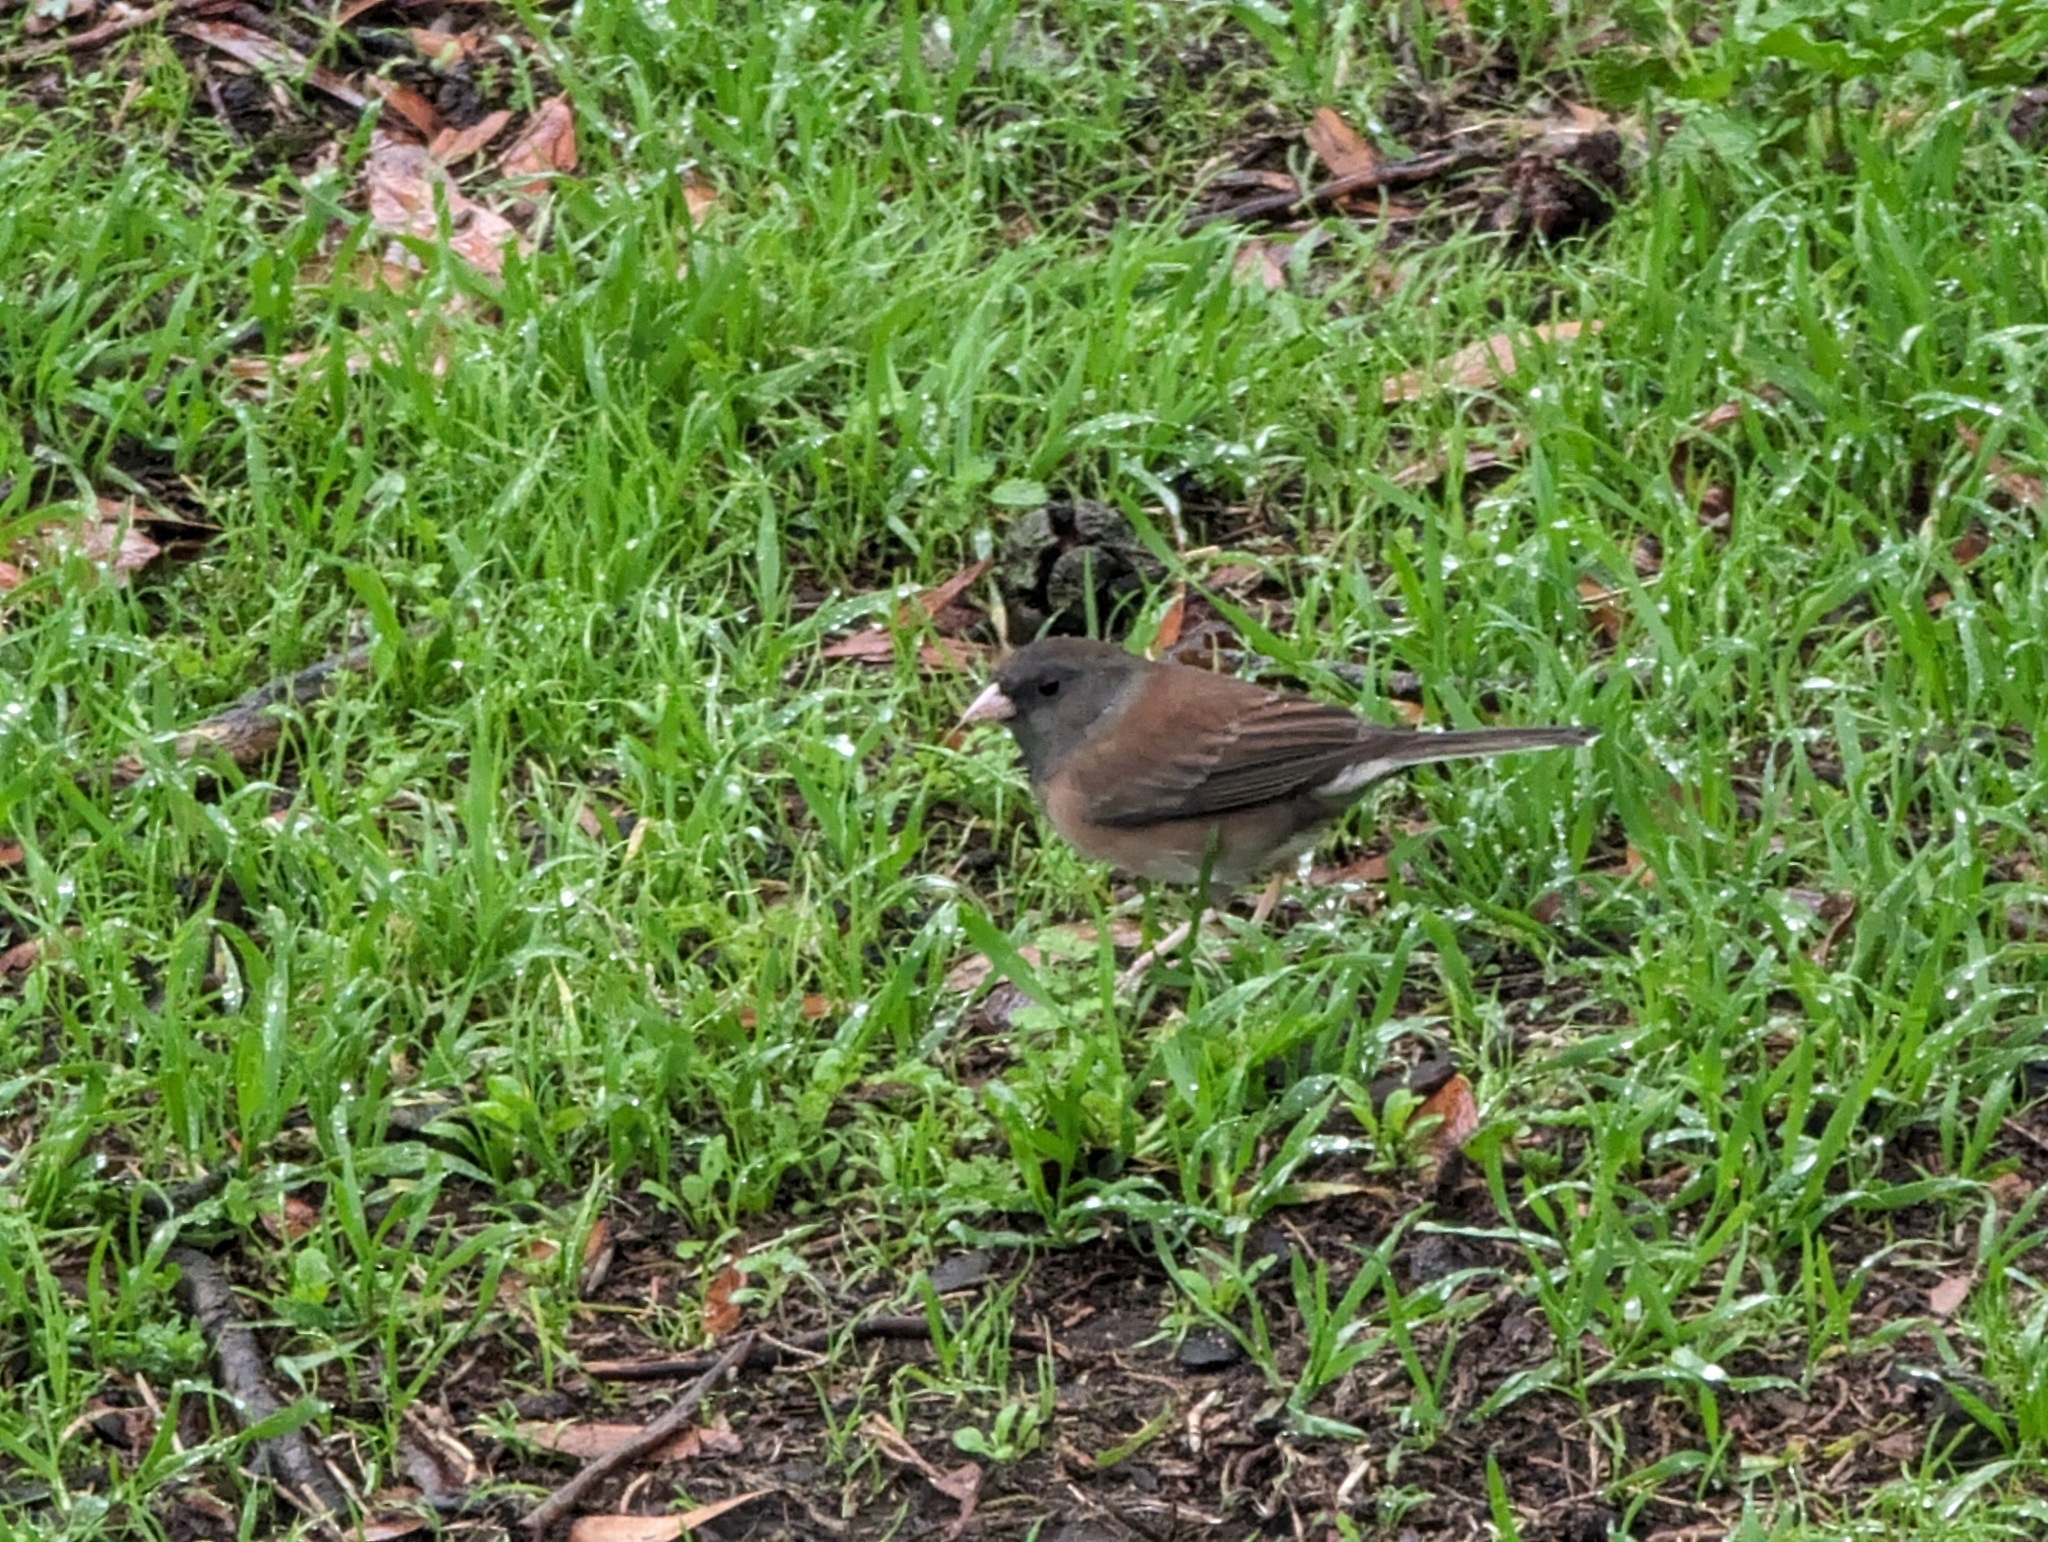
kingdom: Animalia
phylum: Chordata
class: Aves
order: Passeriformes
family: Passerellidae
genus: Junco
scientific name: Junco hyemalis
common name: Dark-eyed junco
